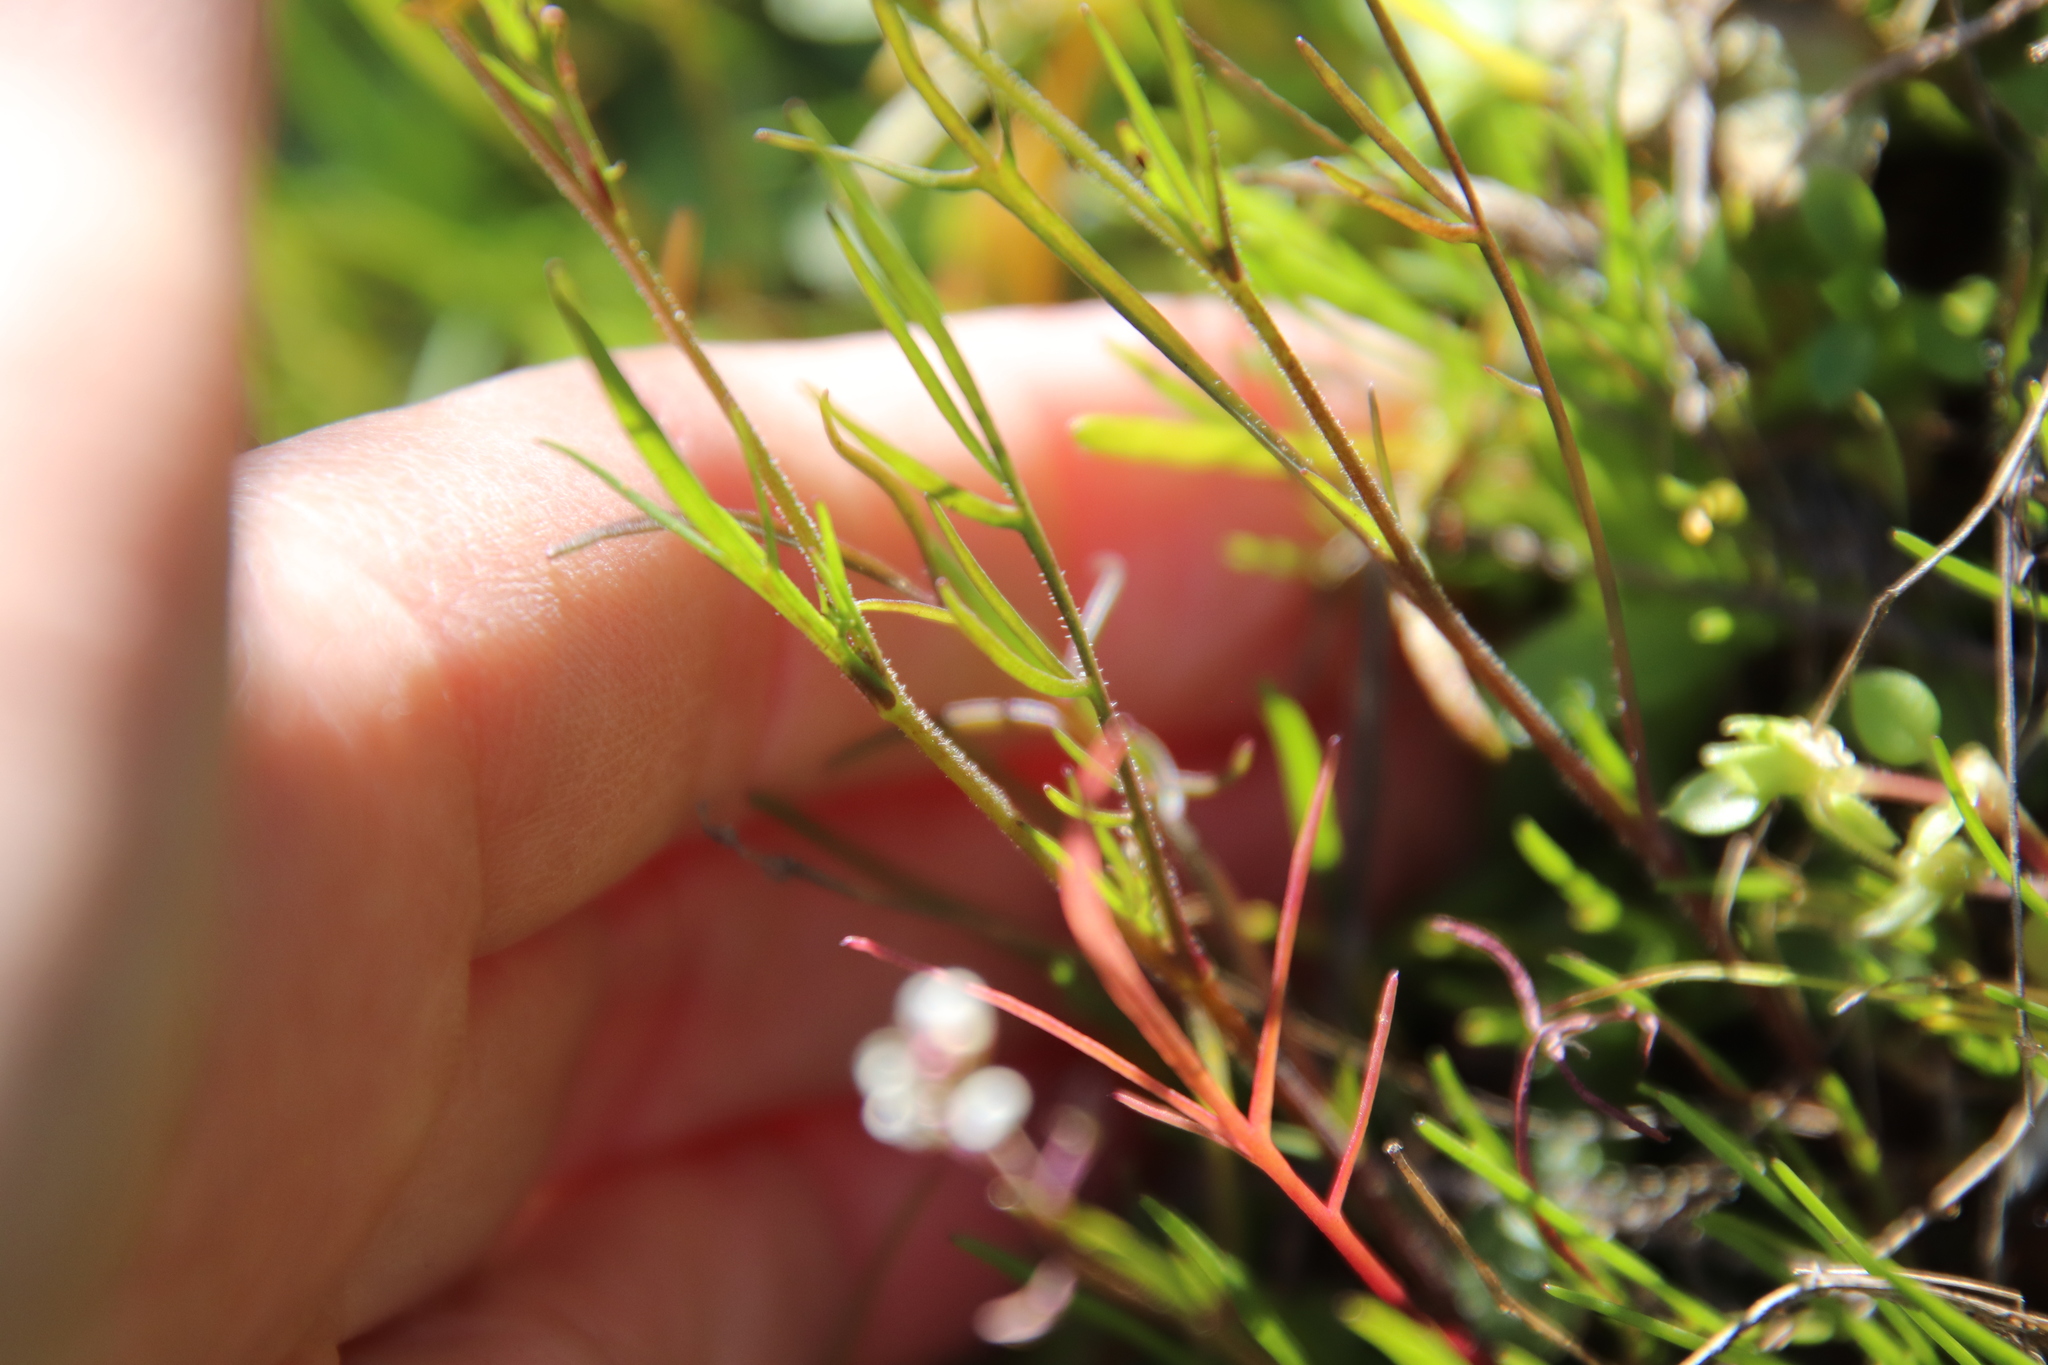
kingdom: Plantae
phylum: Tracheophyta
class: Magnoliopsida
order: Brassicales
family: Brassicaceae
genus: Lepidium
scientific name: Lepidium nitidum
